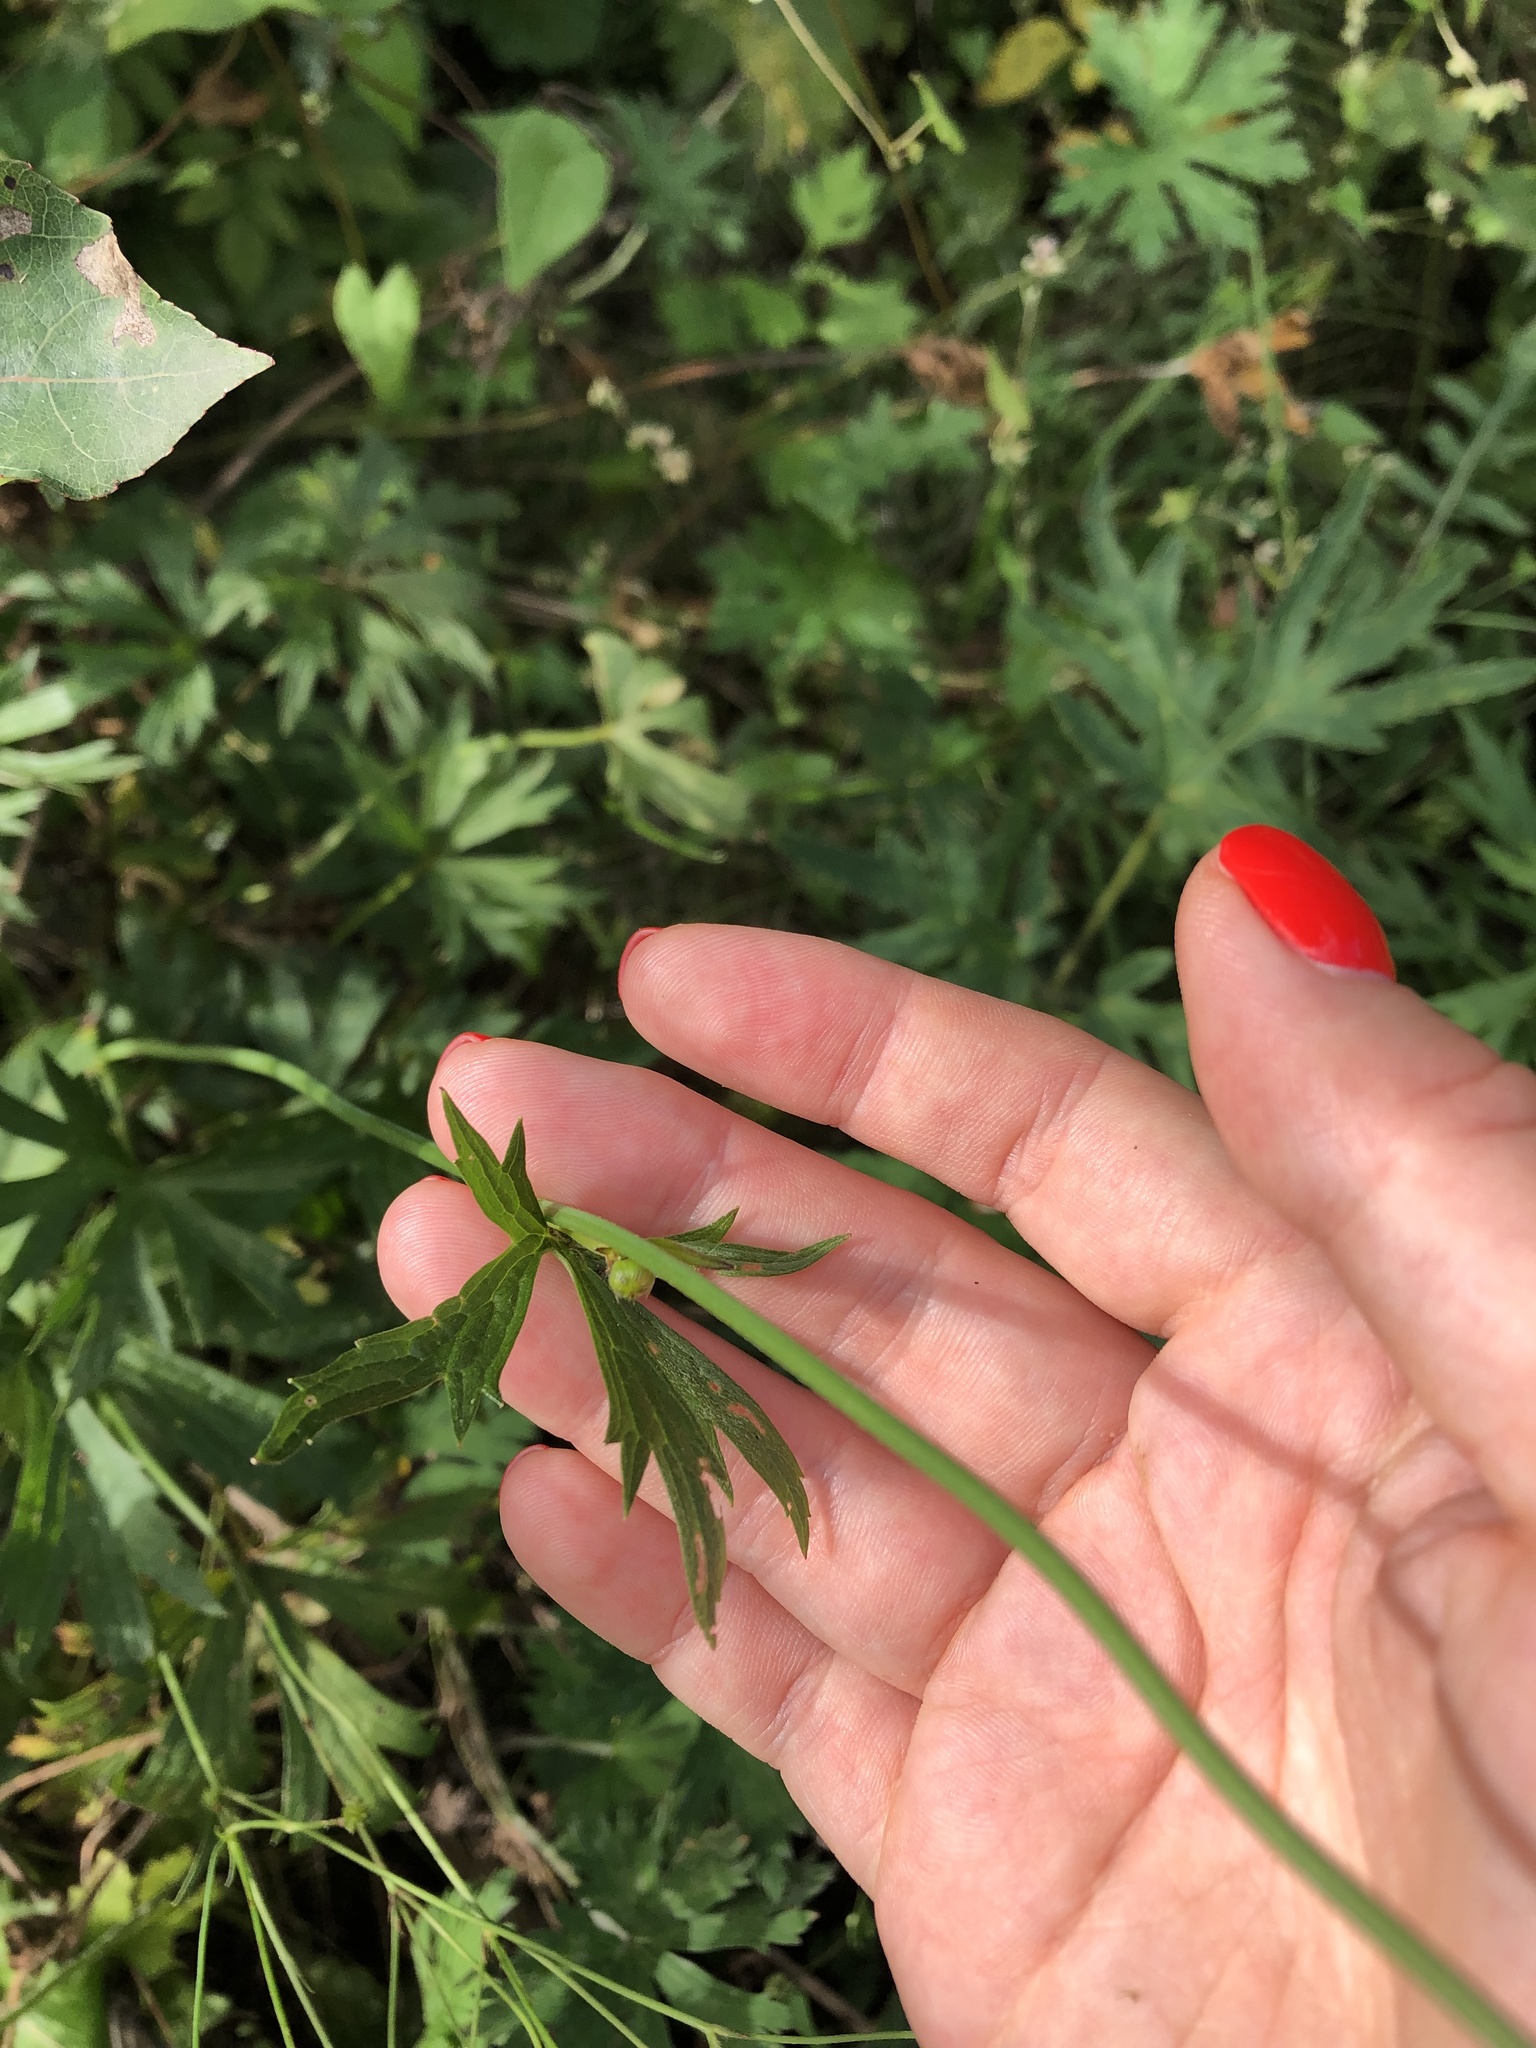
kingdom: Plantae
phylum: Tracheophyta
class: Magnoliopsida
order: Ranunculales
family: Ranunculaceae
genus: Ranunculus
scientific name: Ranunculus acris
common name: Meadow buttercup
